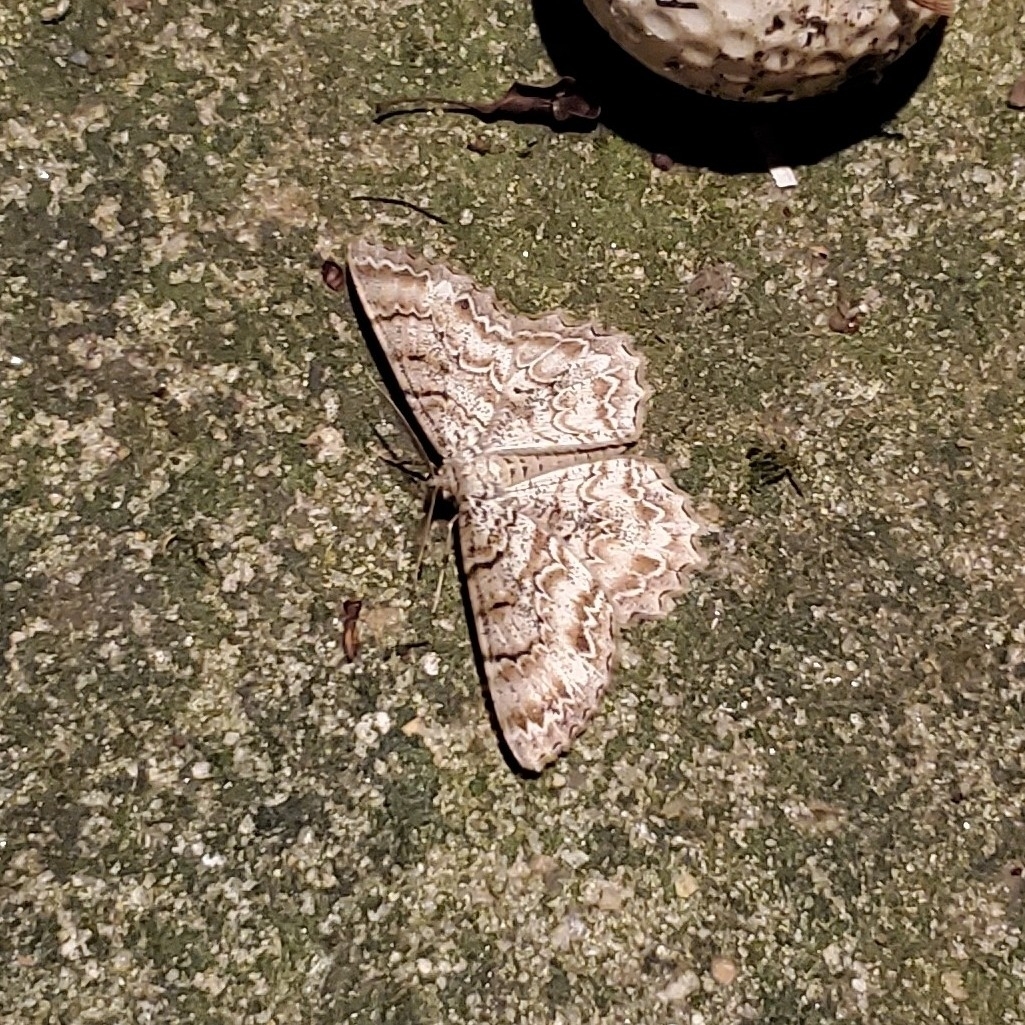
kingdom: Animalia
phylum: Arthropoda
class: Insecta
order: Lepidoptera
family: Geometridae
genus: Epimecis
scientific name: Epimecis hortaria
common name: Tulip-tree beauty
